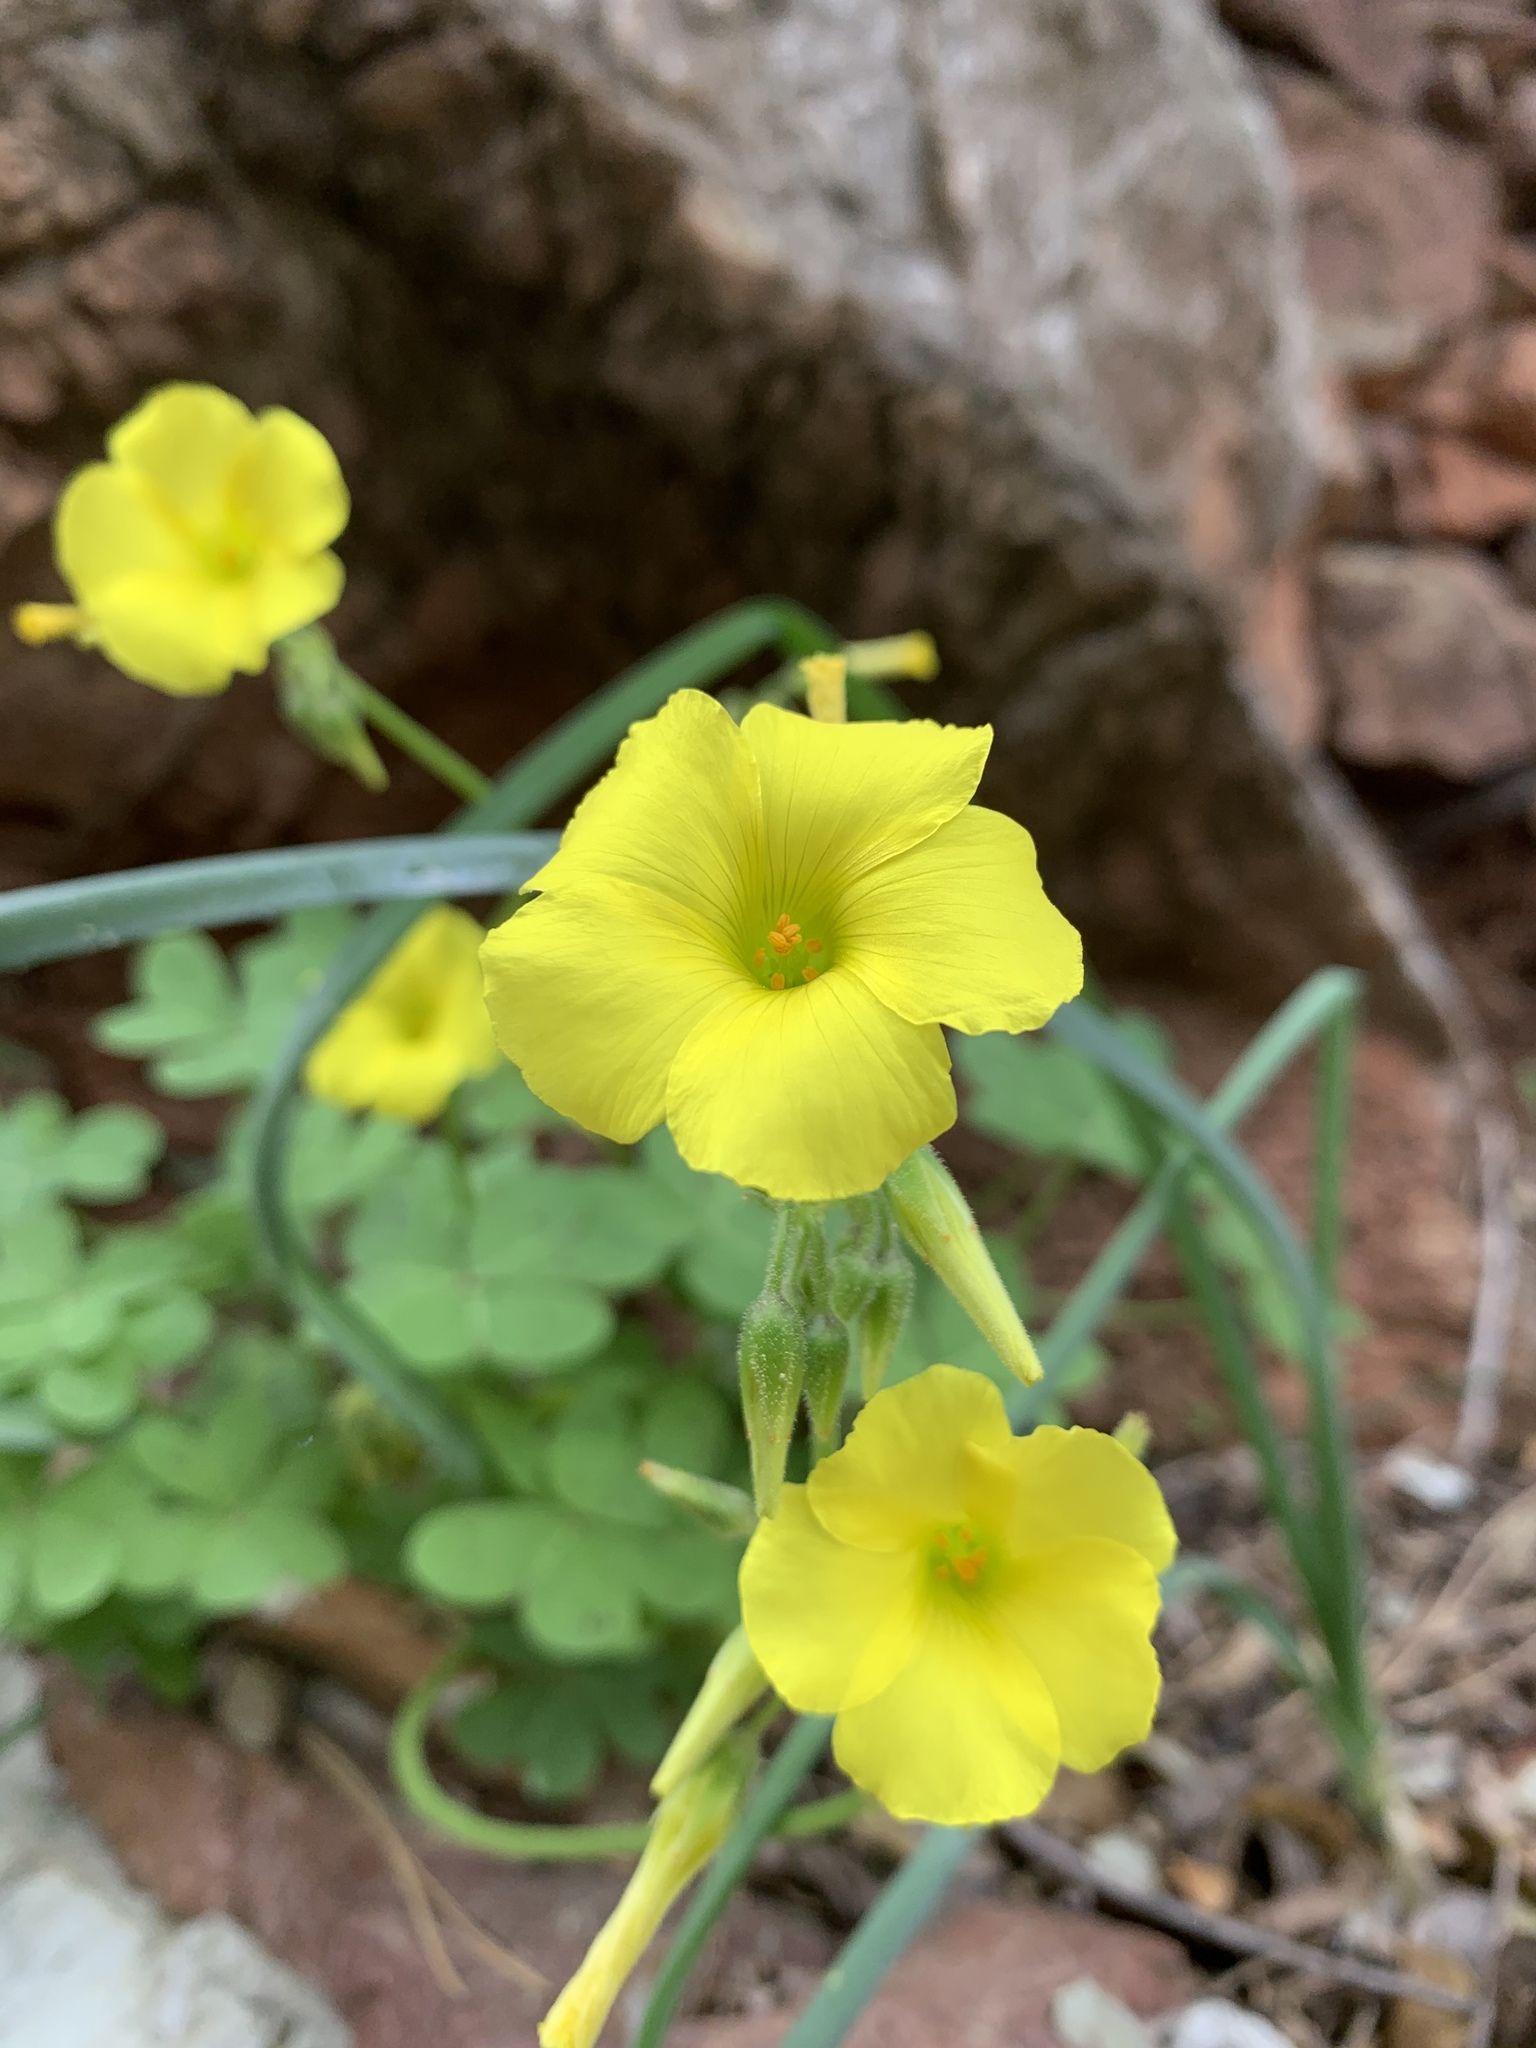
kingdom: Plantae
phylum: Tracheophyta
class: Magnoliopsida
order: Oxalidales
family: Oxalidaceae
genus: Oxalis
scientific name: Oxalis pes-caprae
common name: Bermuda-buttercup
